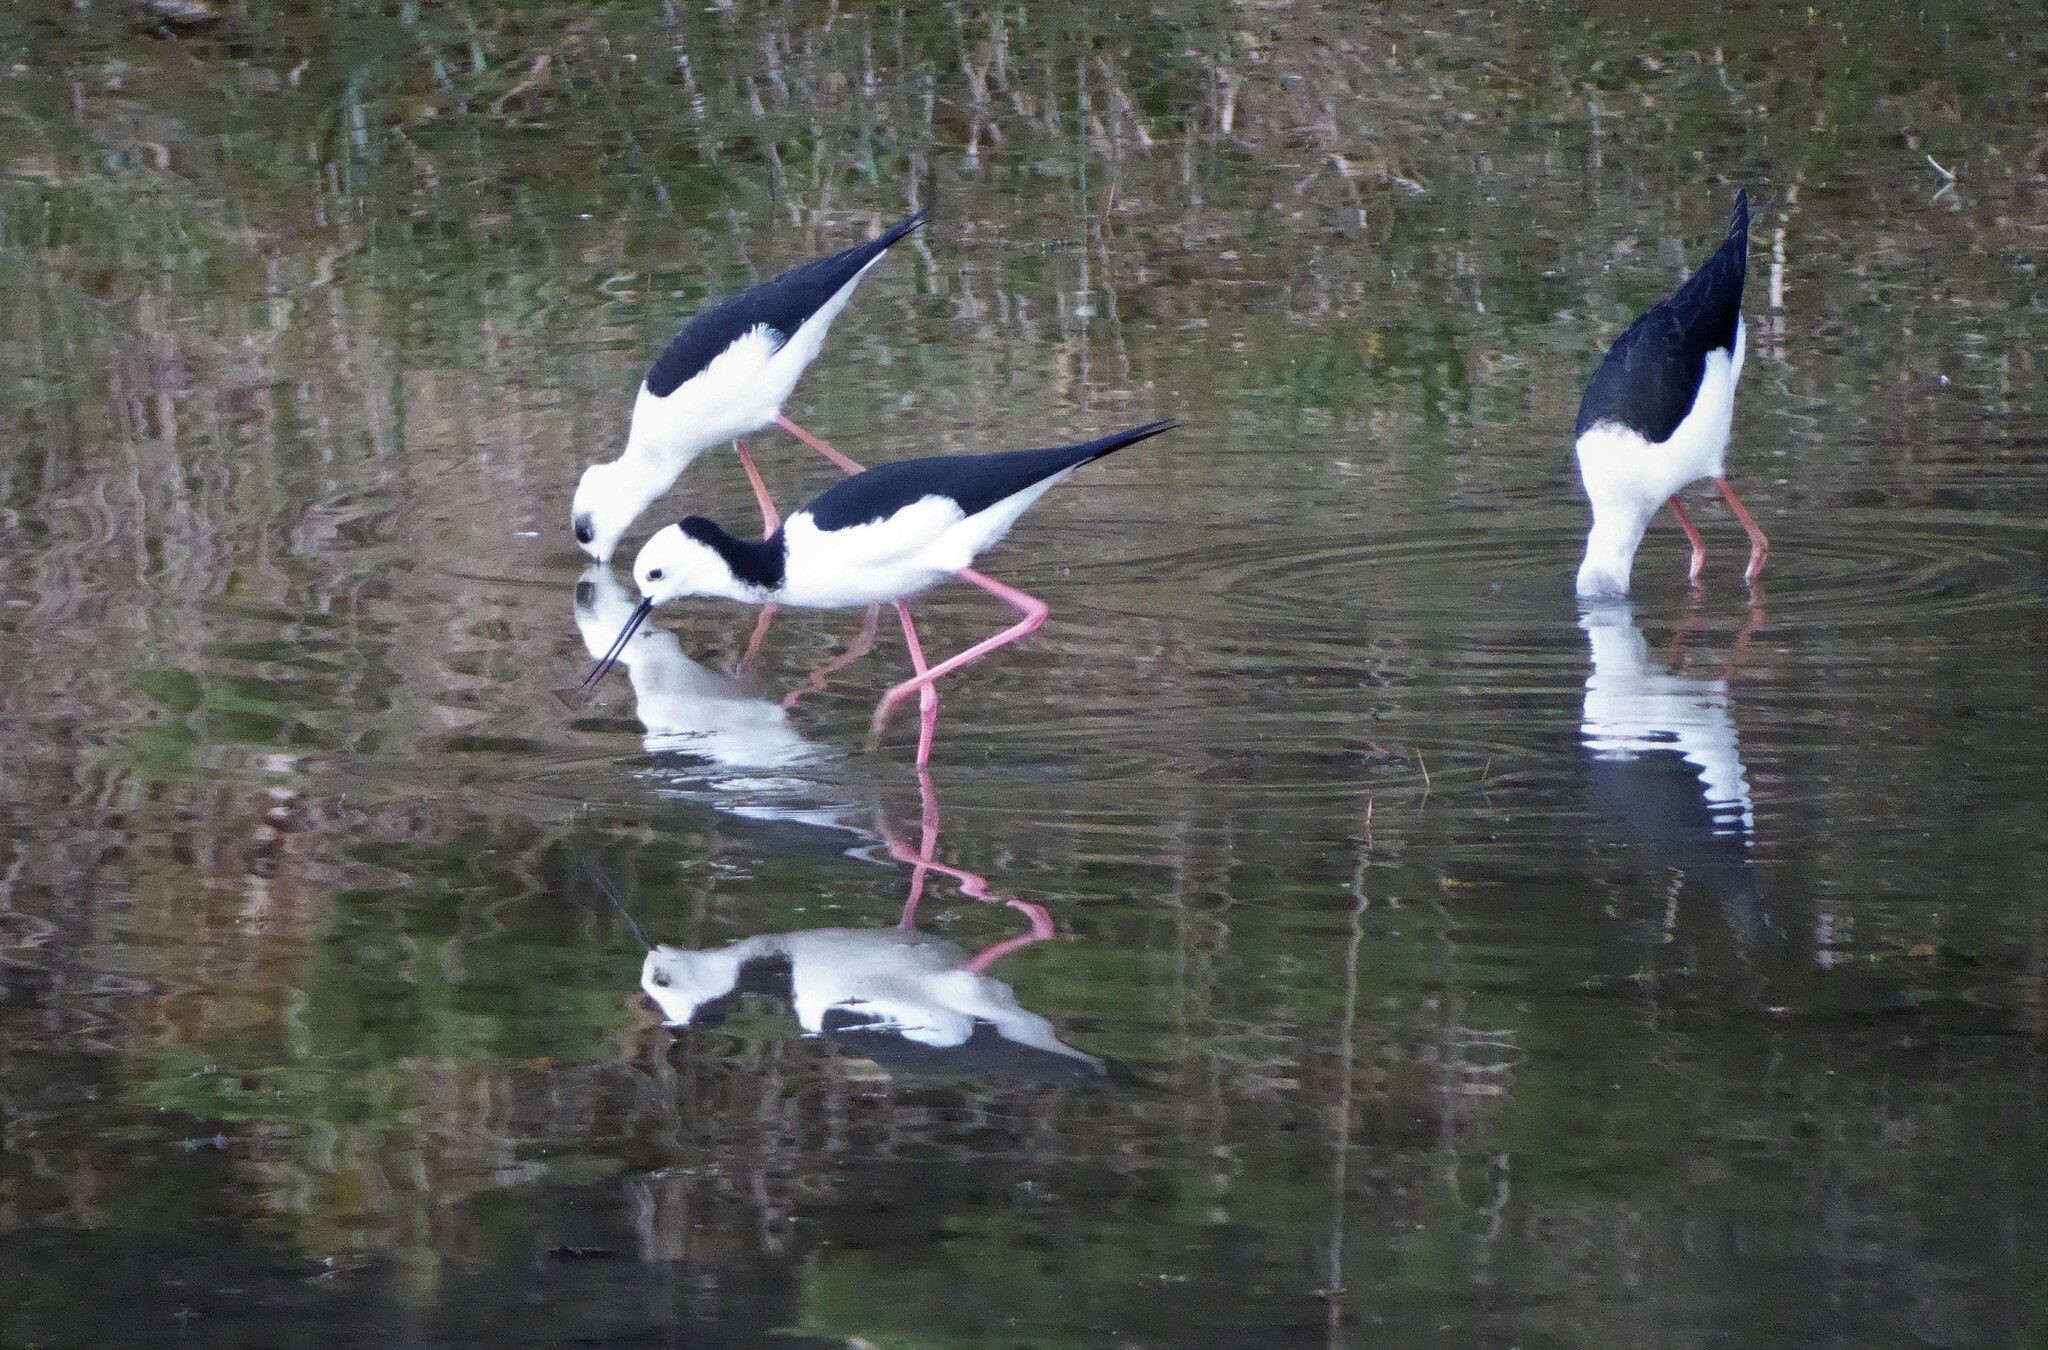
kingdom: Animalia
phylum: Chordata
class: Aves
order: Charadriiformes
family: Recurvirostridae
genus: Himantopus
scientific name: Himantopus leucocephalus
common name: White-headed stilt
